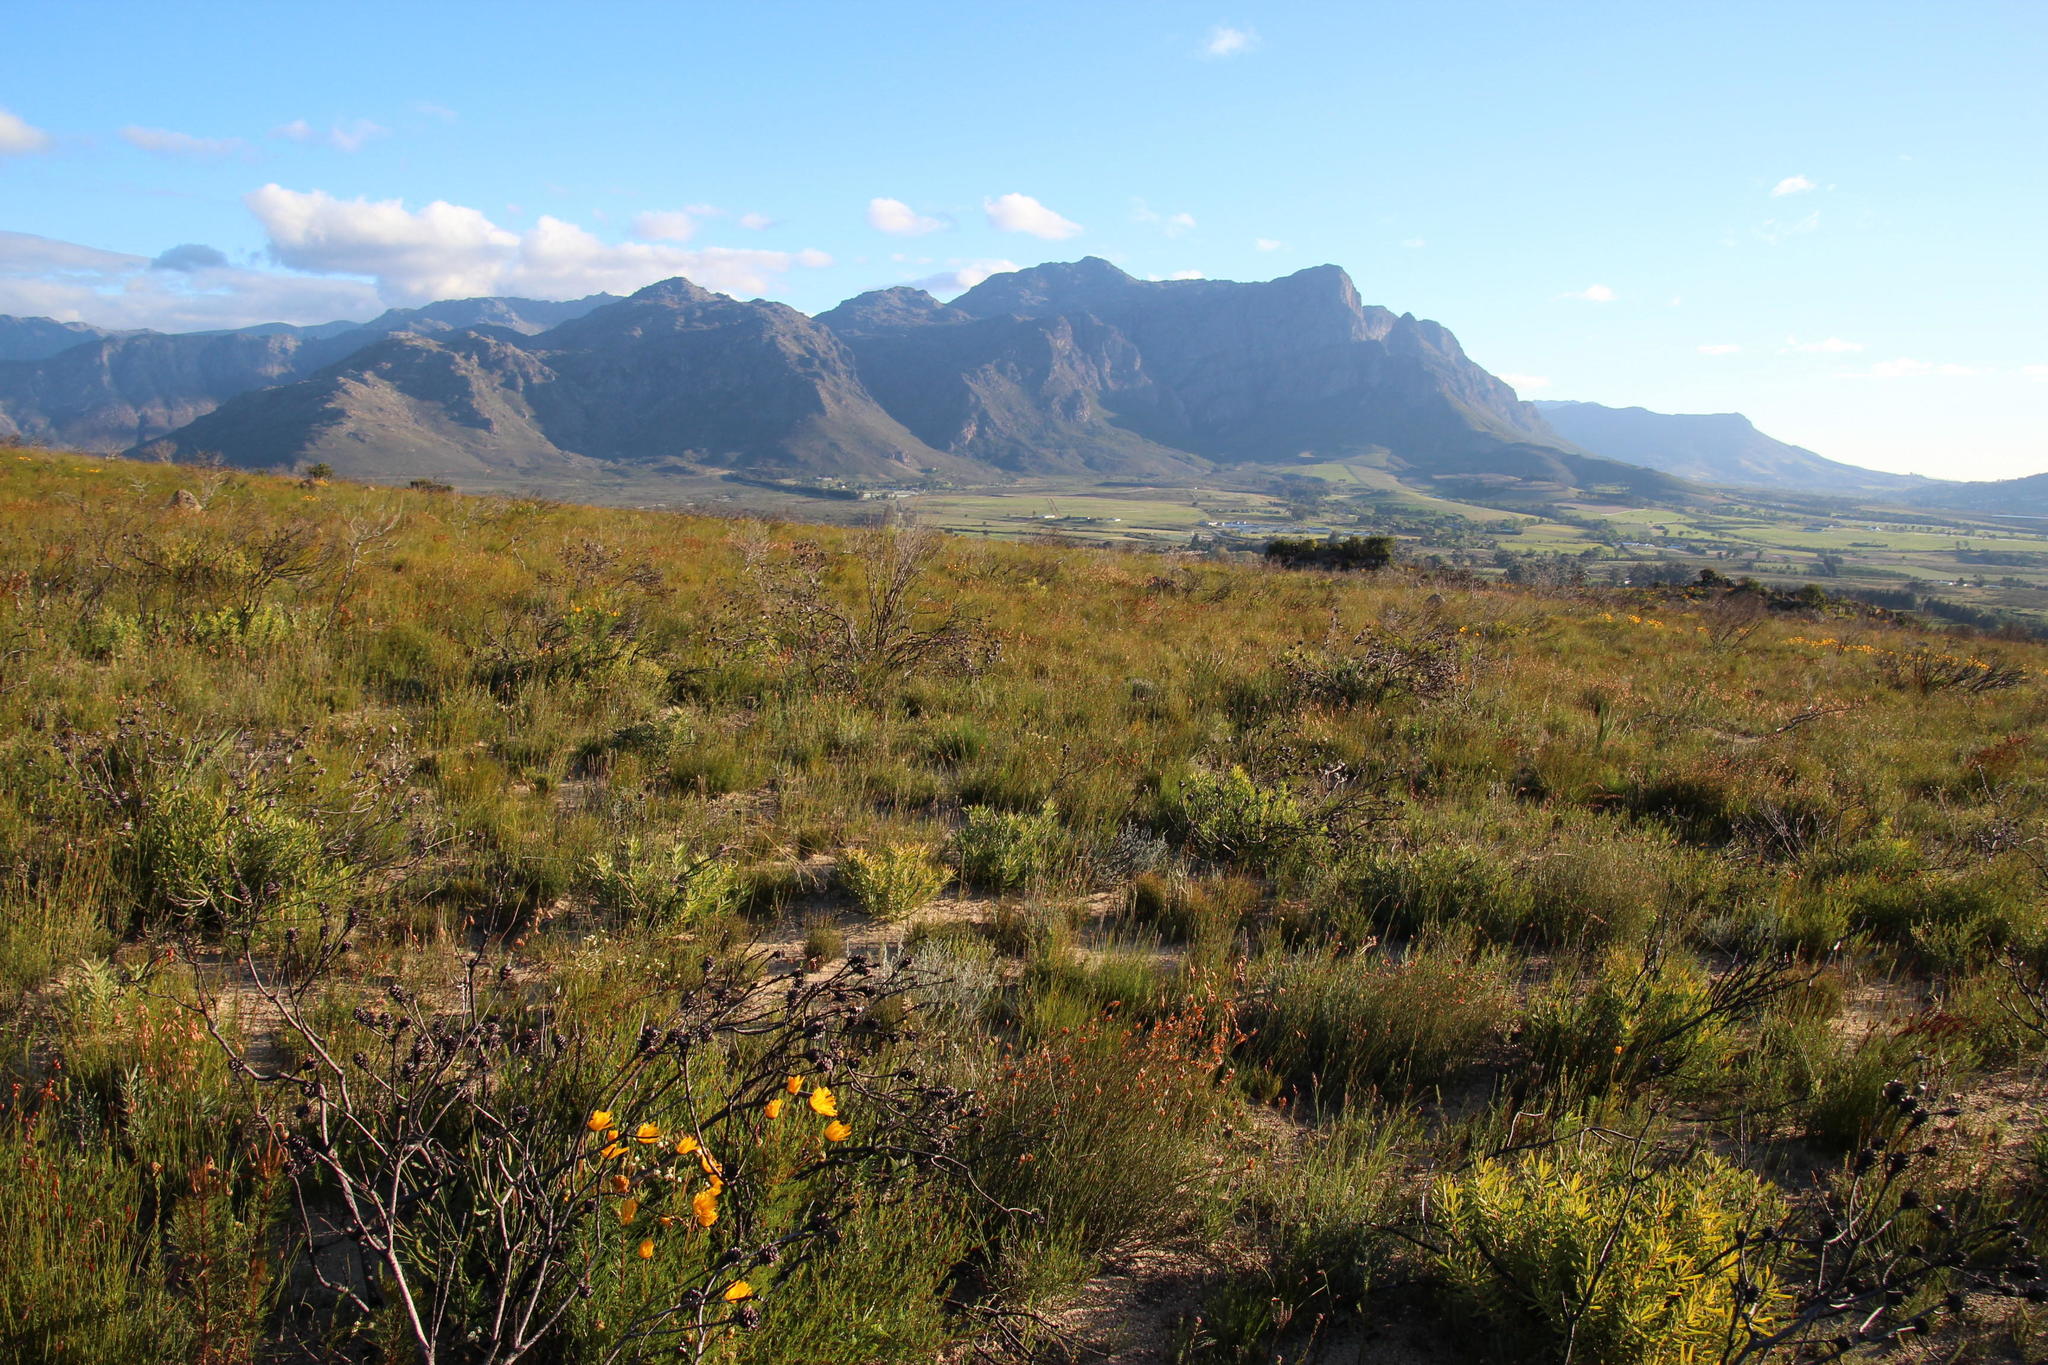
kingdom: Plantae
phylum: Tracheophyta
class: Magnoliopsida
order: Proteales
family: Proteaceae
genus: Leucadendron
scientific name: Leucadendron salignum
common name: Common sunshine conebush
